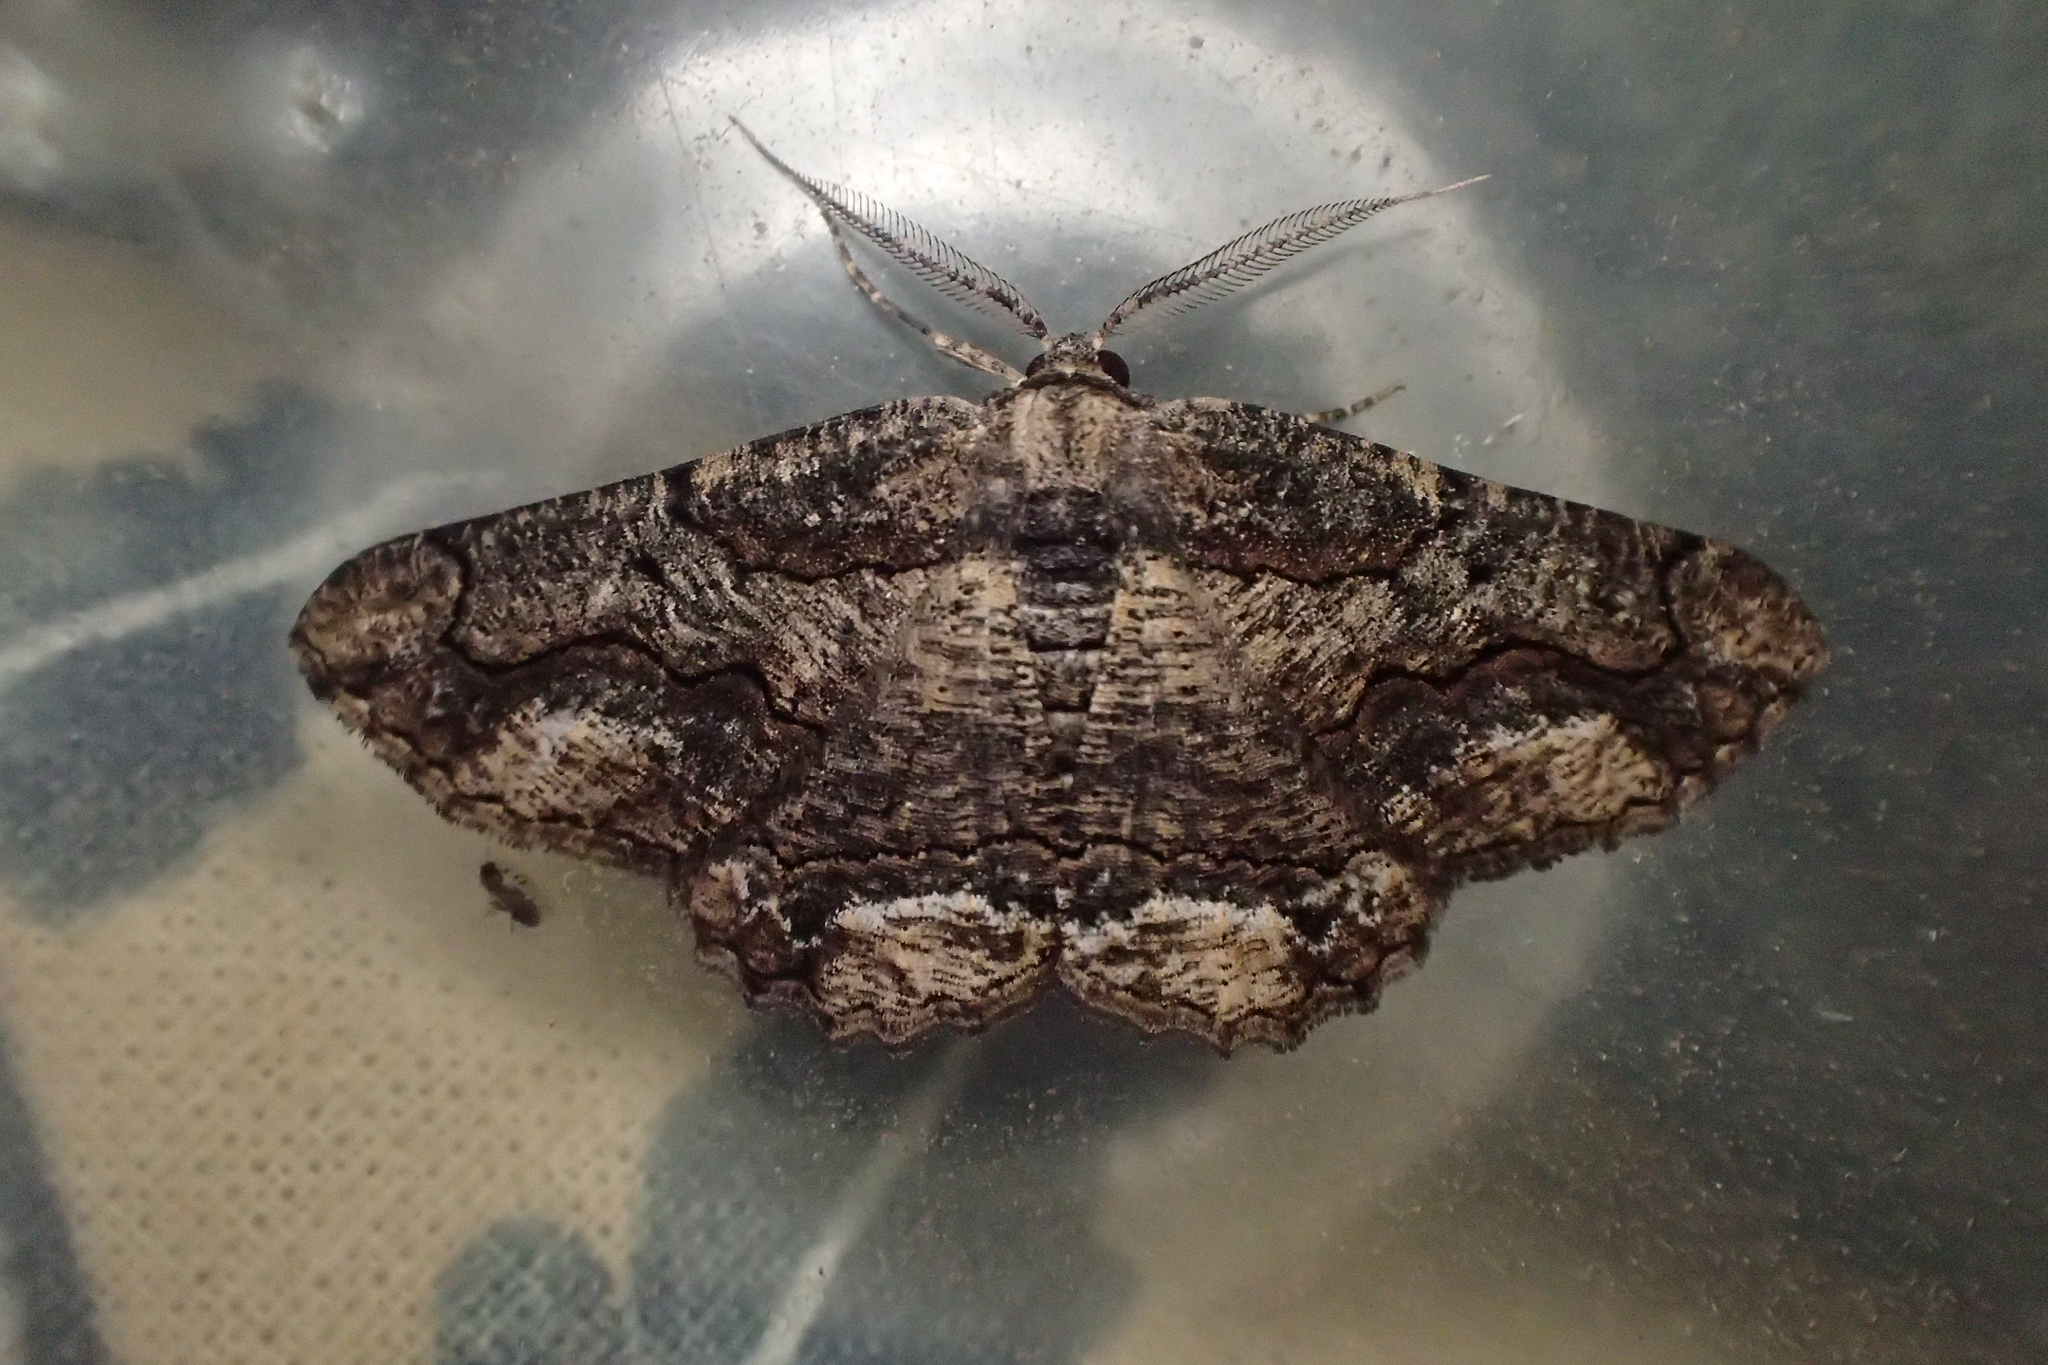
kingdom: Animalia
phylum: Arthropoda
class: Insecta
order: Lepidoptera
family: Geometridae
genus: Menophra
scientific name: Menophra japygiaria
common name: Brassy waved umber
